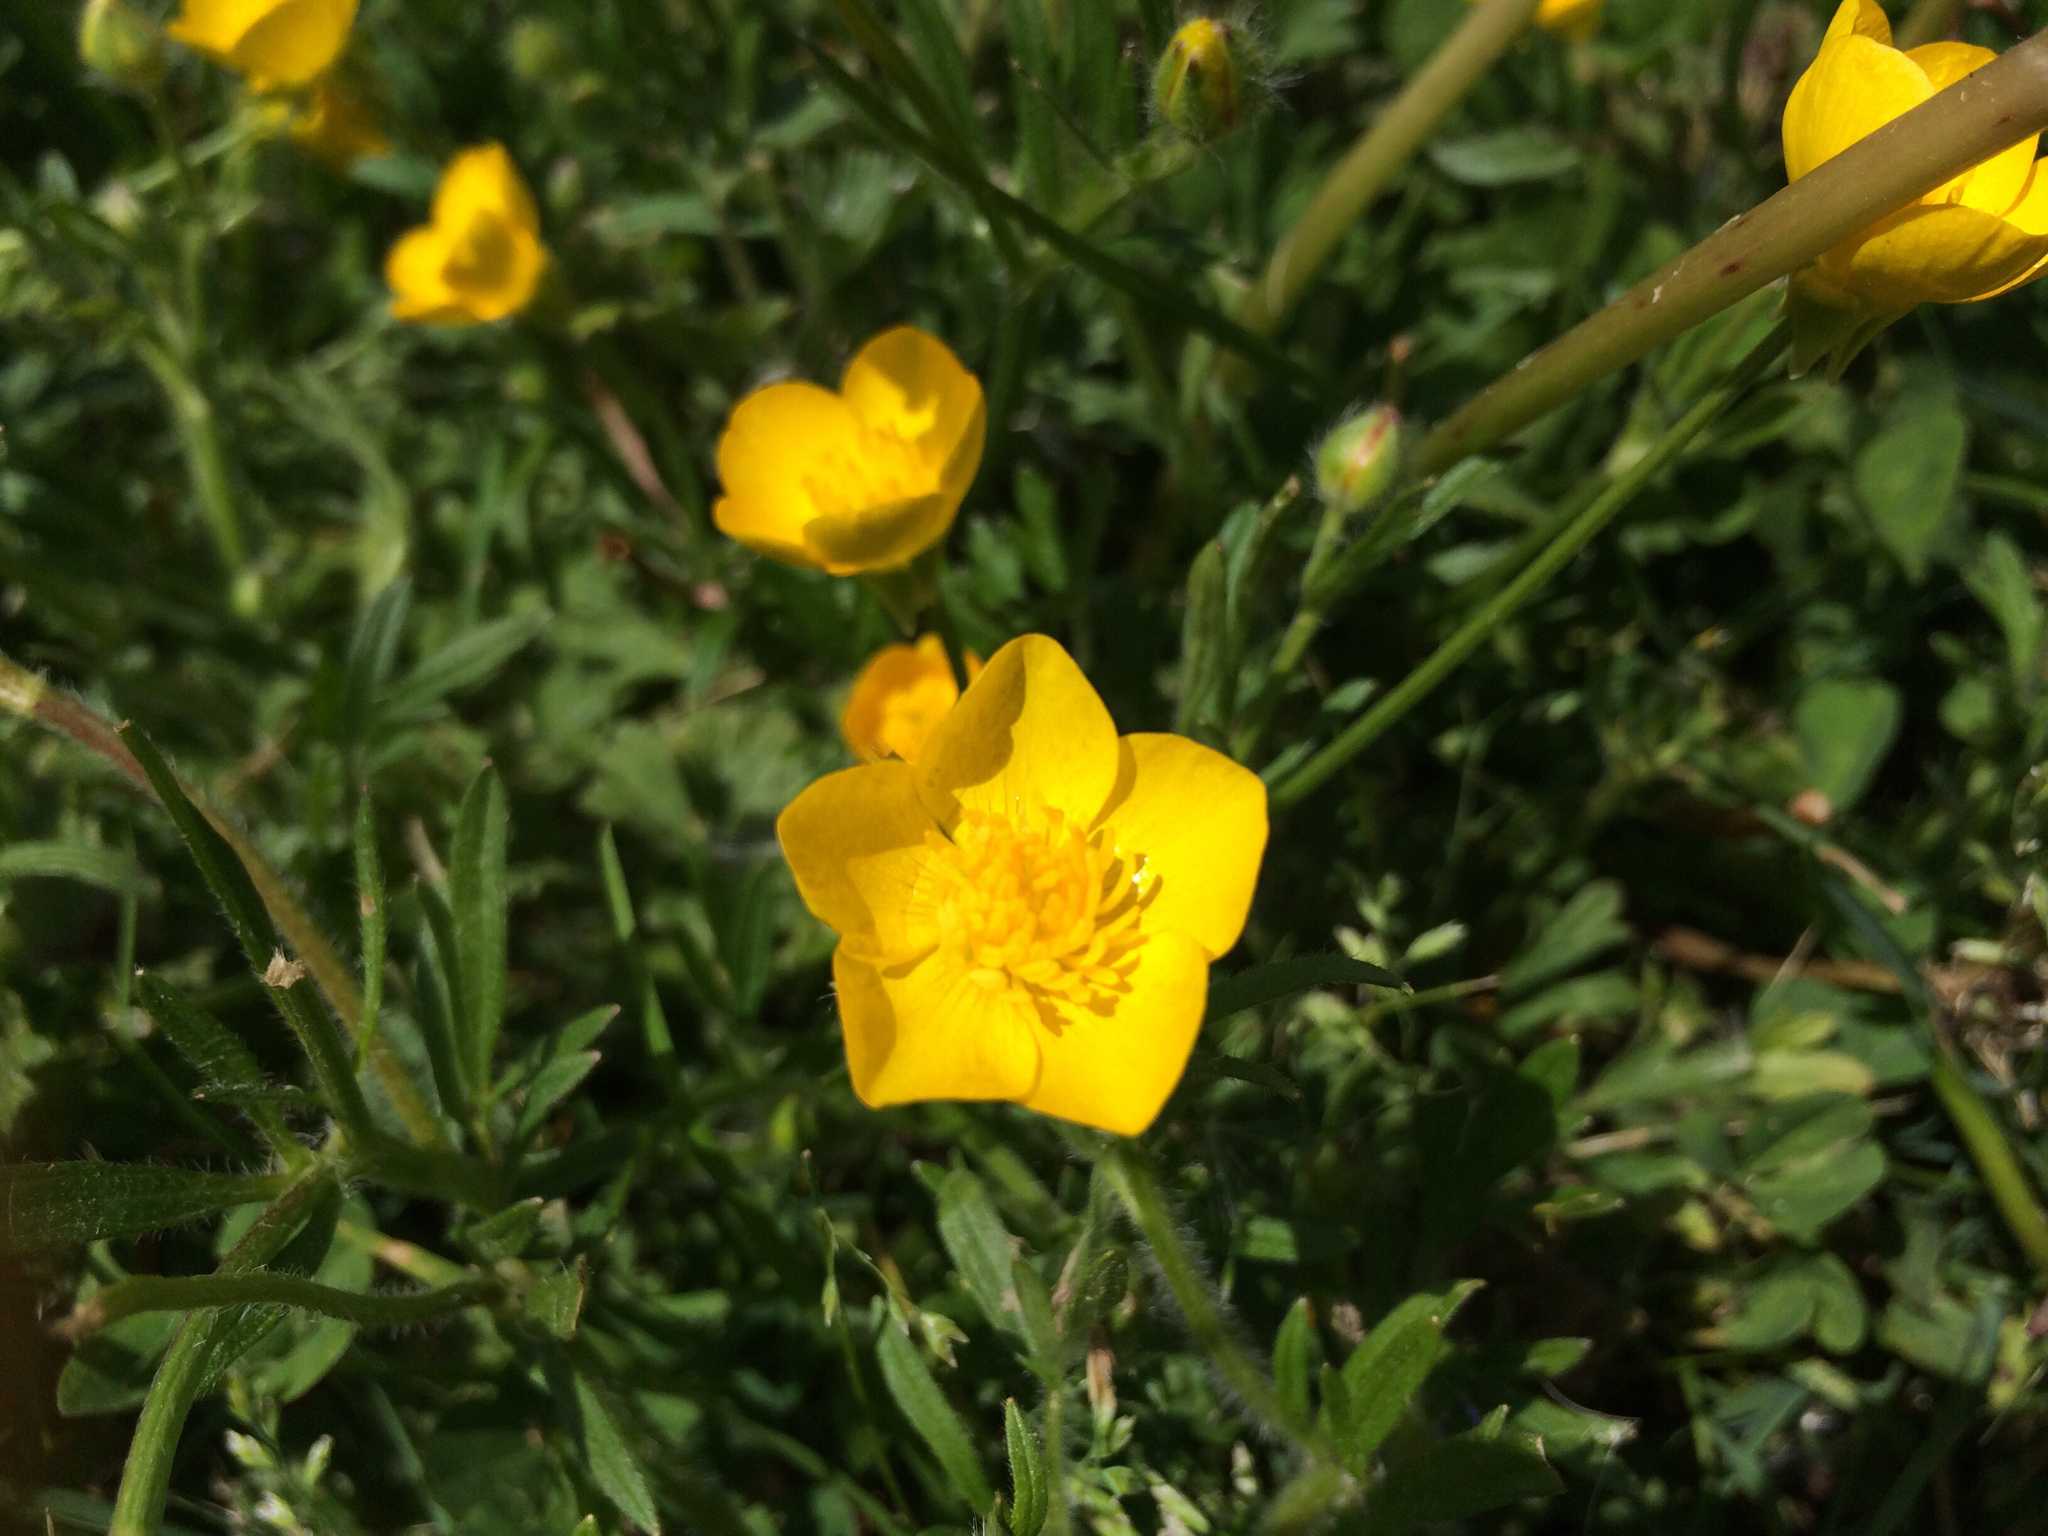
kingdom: Plantae
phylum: Tracheophyta
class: Magnoliopsida
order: Ranunculales
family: Ranunculaceae
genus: Ranunculus
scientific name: Ranunculus repens
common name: Creeping buttercup
